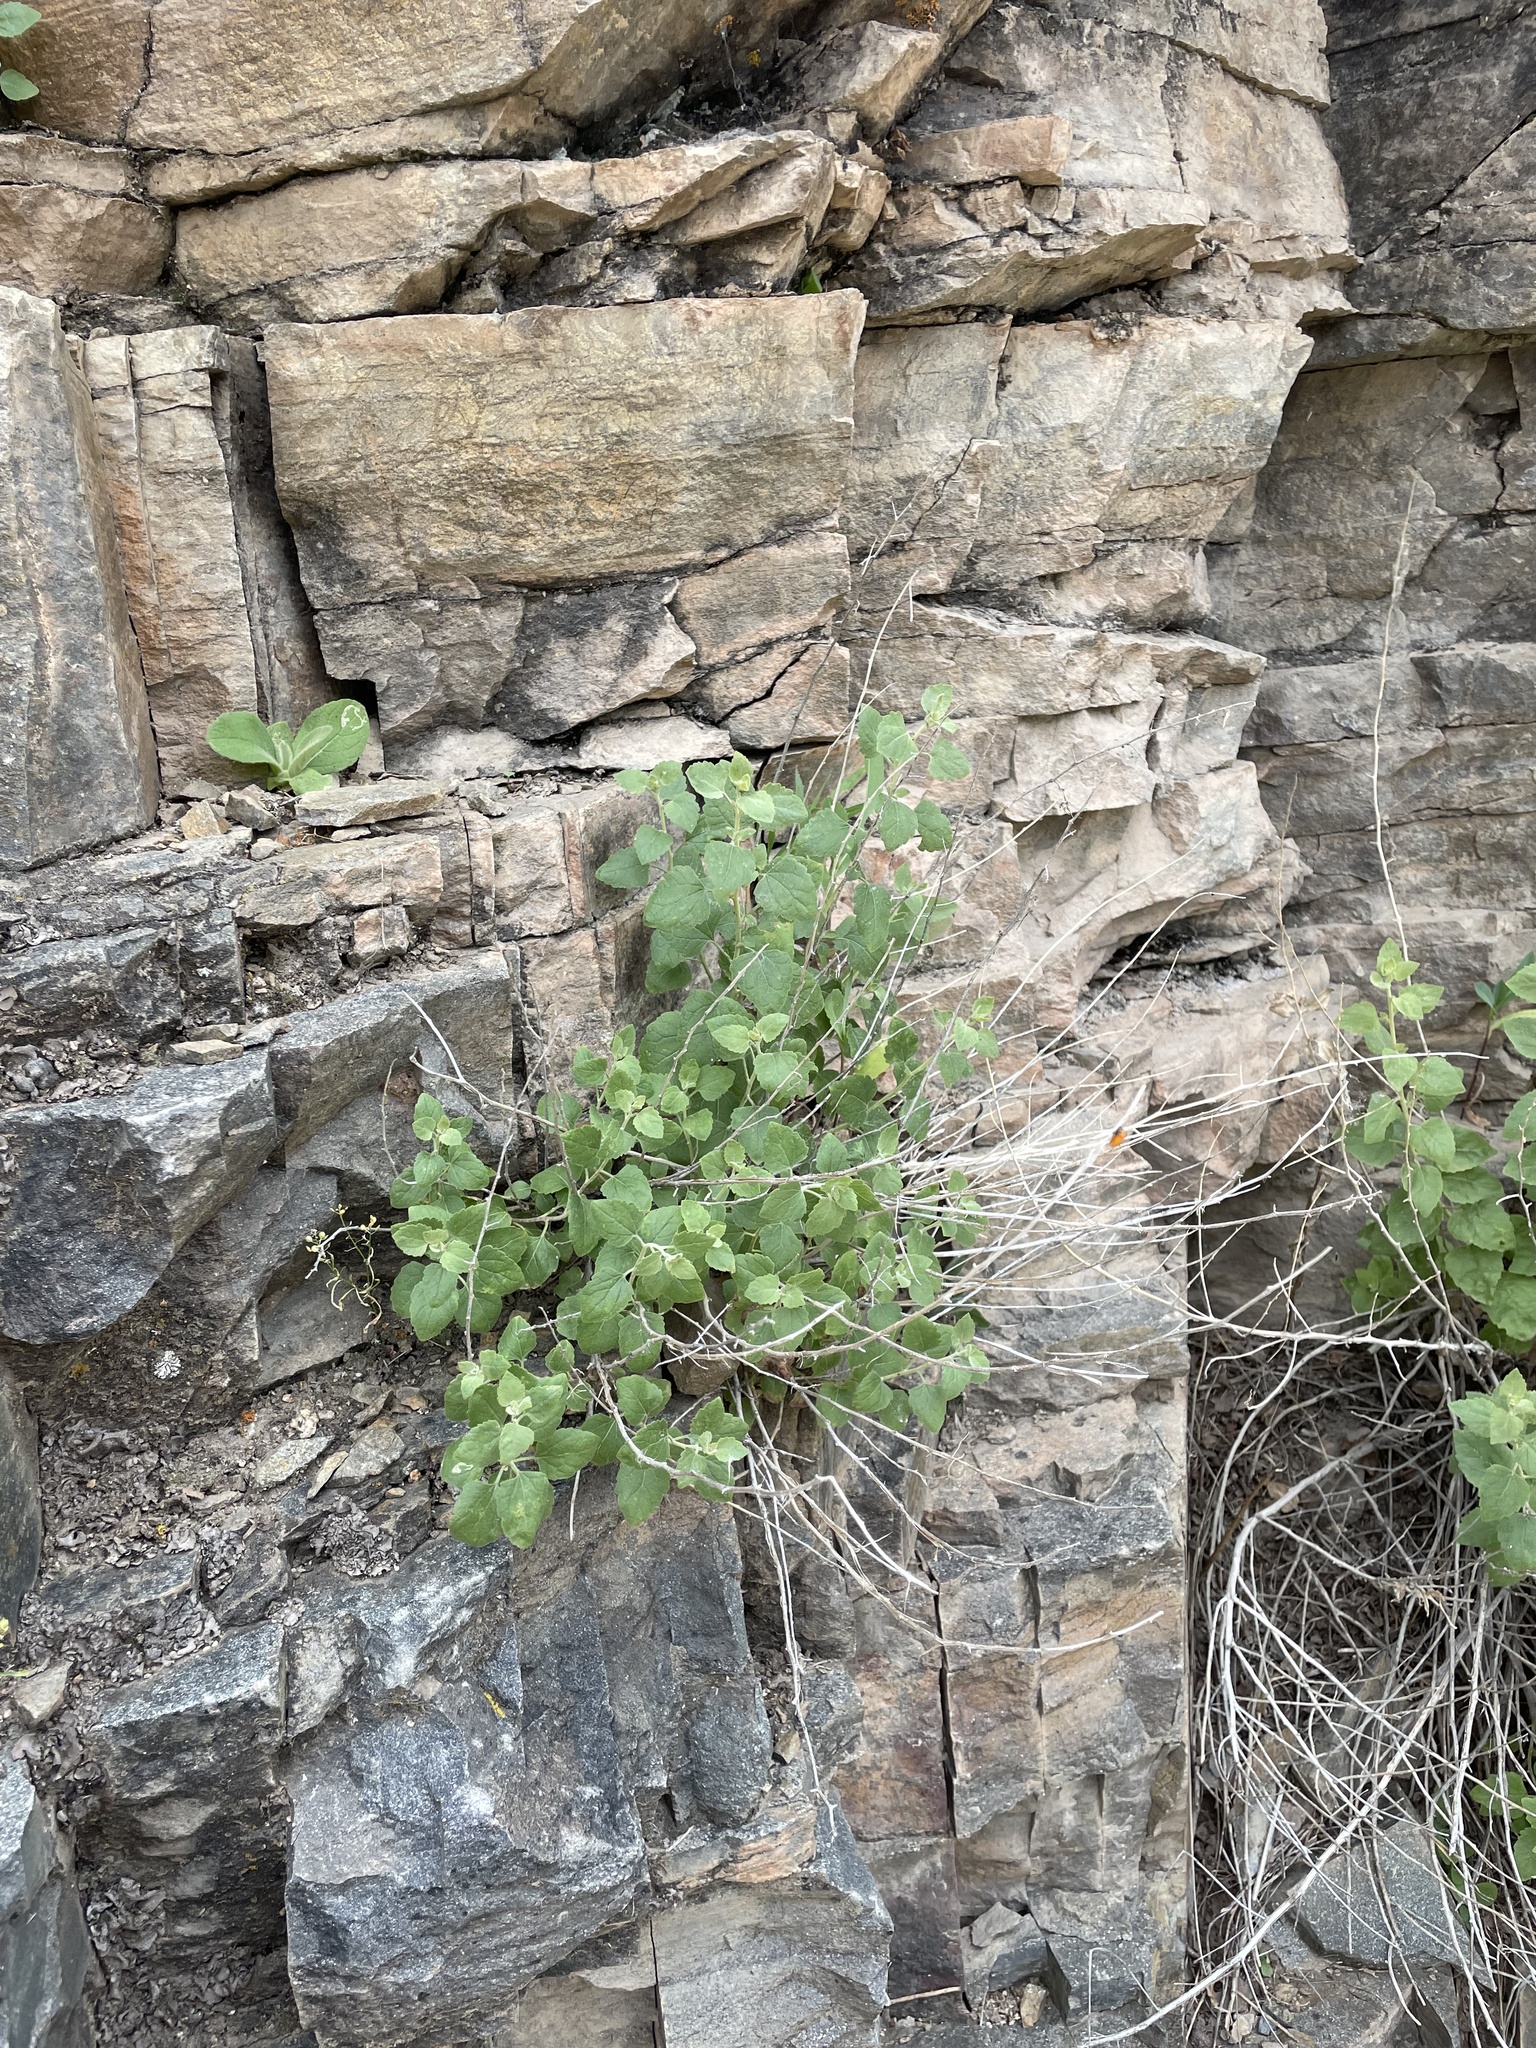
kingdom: Plantae
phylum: Tracheophyta
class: Magnoliopsida
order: Asterales
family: Asteraceae
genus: Brickellia
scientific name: Brickellia californica
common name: California brickellbush
